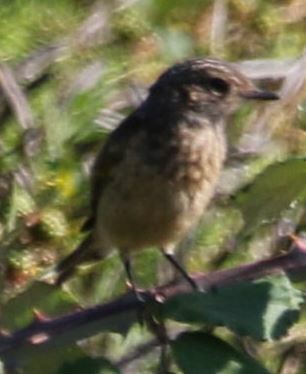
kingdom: Animalia
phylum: Chordata
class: Aves
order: Passeriformes
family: Muscicapidae
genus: Saxicola
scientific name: Saxicola rubicola
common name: European stonechat
